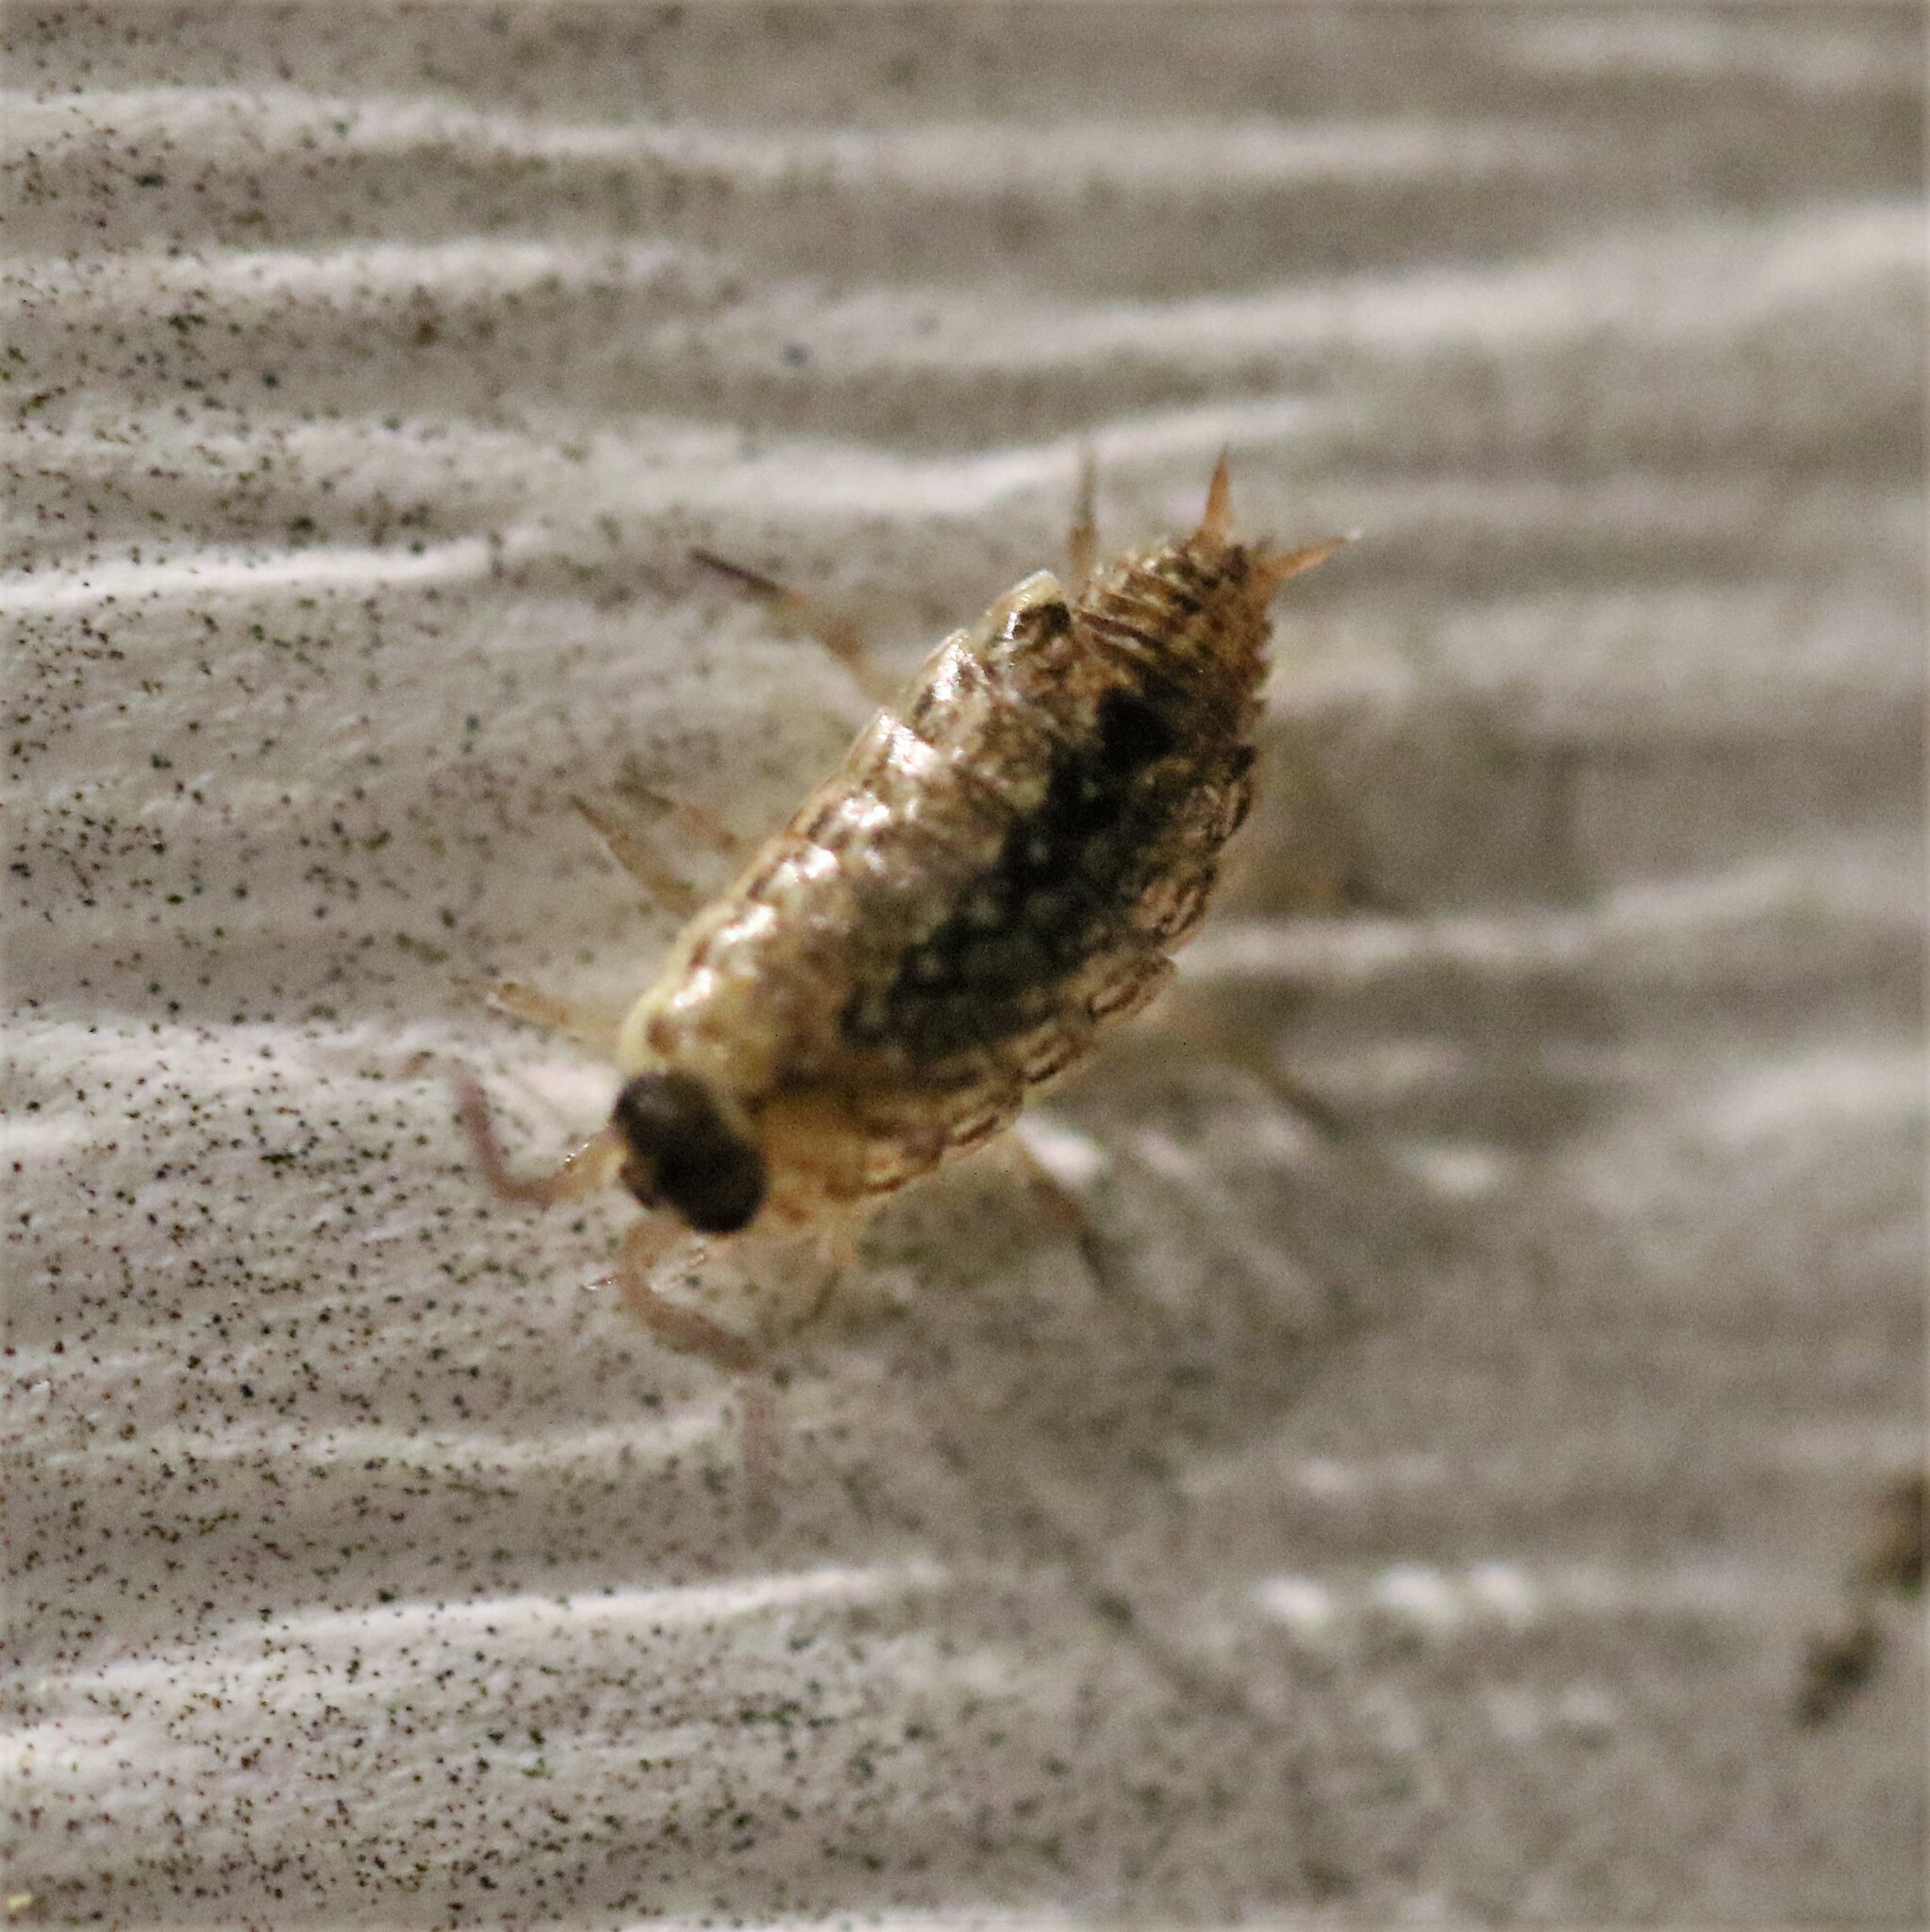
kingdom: Animalia
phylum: Arthropoda
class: Malacostraca
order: Isopoda
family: Philosciidae
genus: Philoscia
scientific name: Philoscia muscorum
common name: Common striped woodlouse
